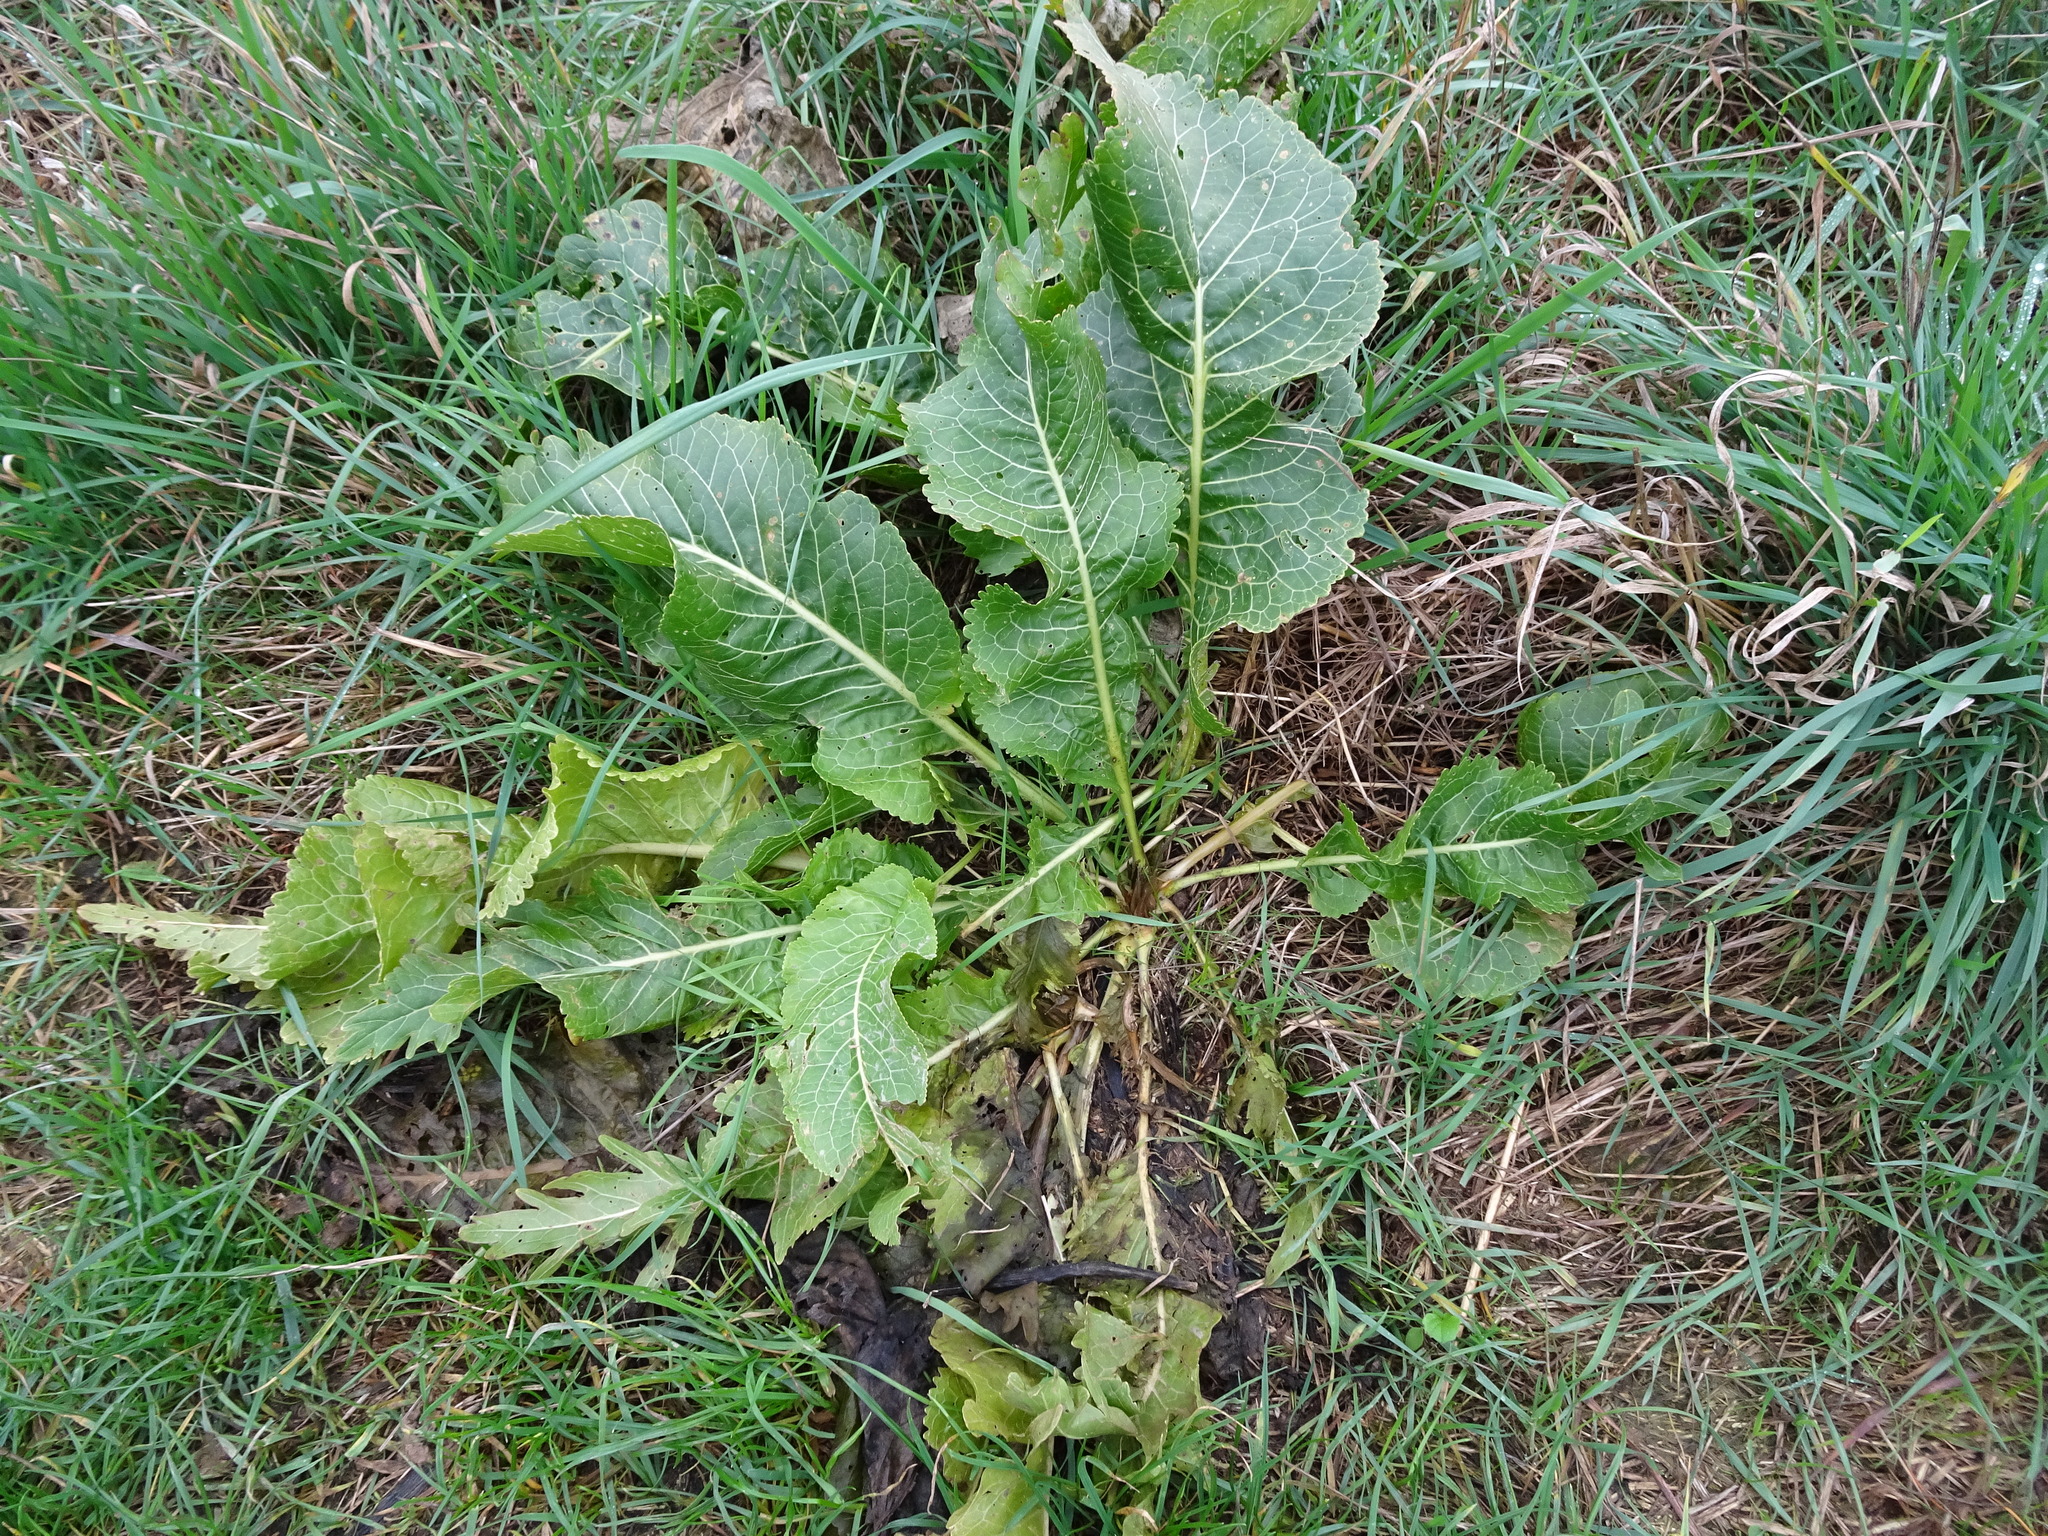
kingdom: Plantae
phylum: Tracheophyta
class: Magnoliopsida
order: Brassicales
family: Brassicaceae
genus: Armoracia
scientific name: Armoracia rusticana
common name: Horseradish
